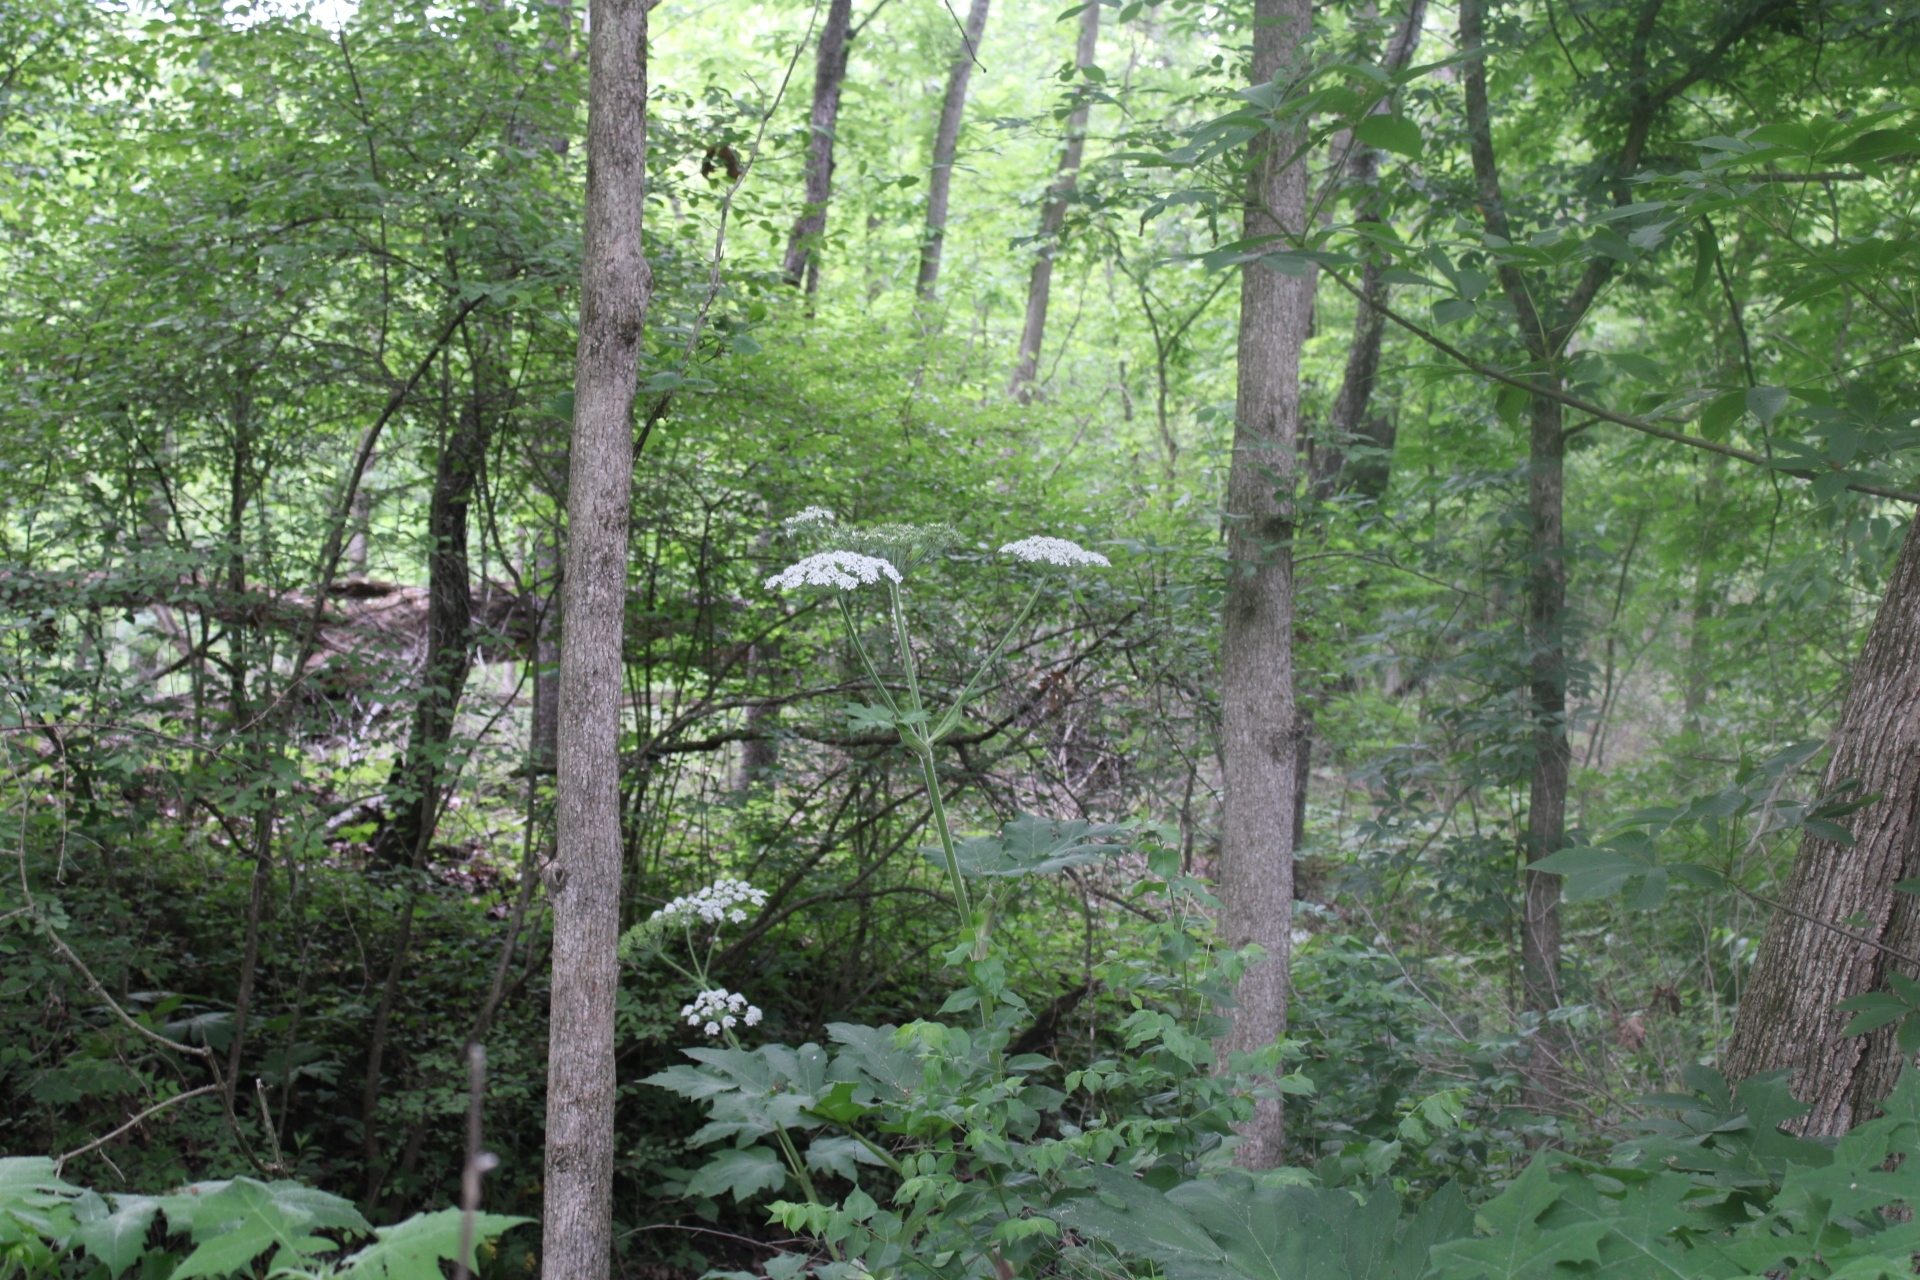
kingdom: Plantae
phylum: Tracheophyta
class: Magnoliopsida
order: Apiales
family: Apiaceae
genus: Heracleum
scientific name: Heracleum maximum
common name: American cow parsnip
